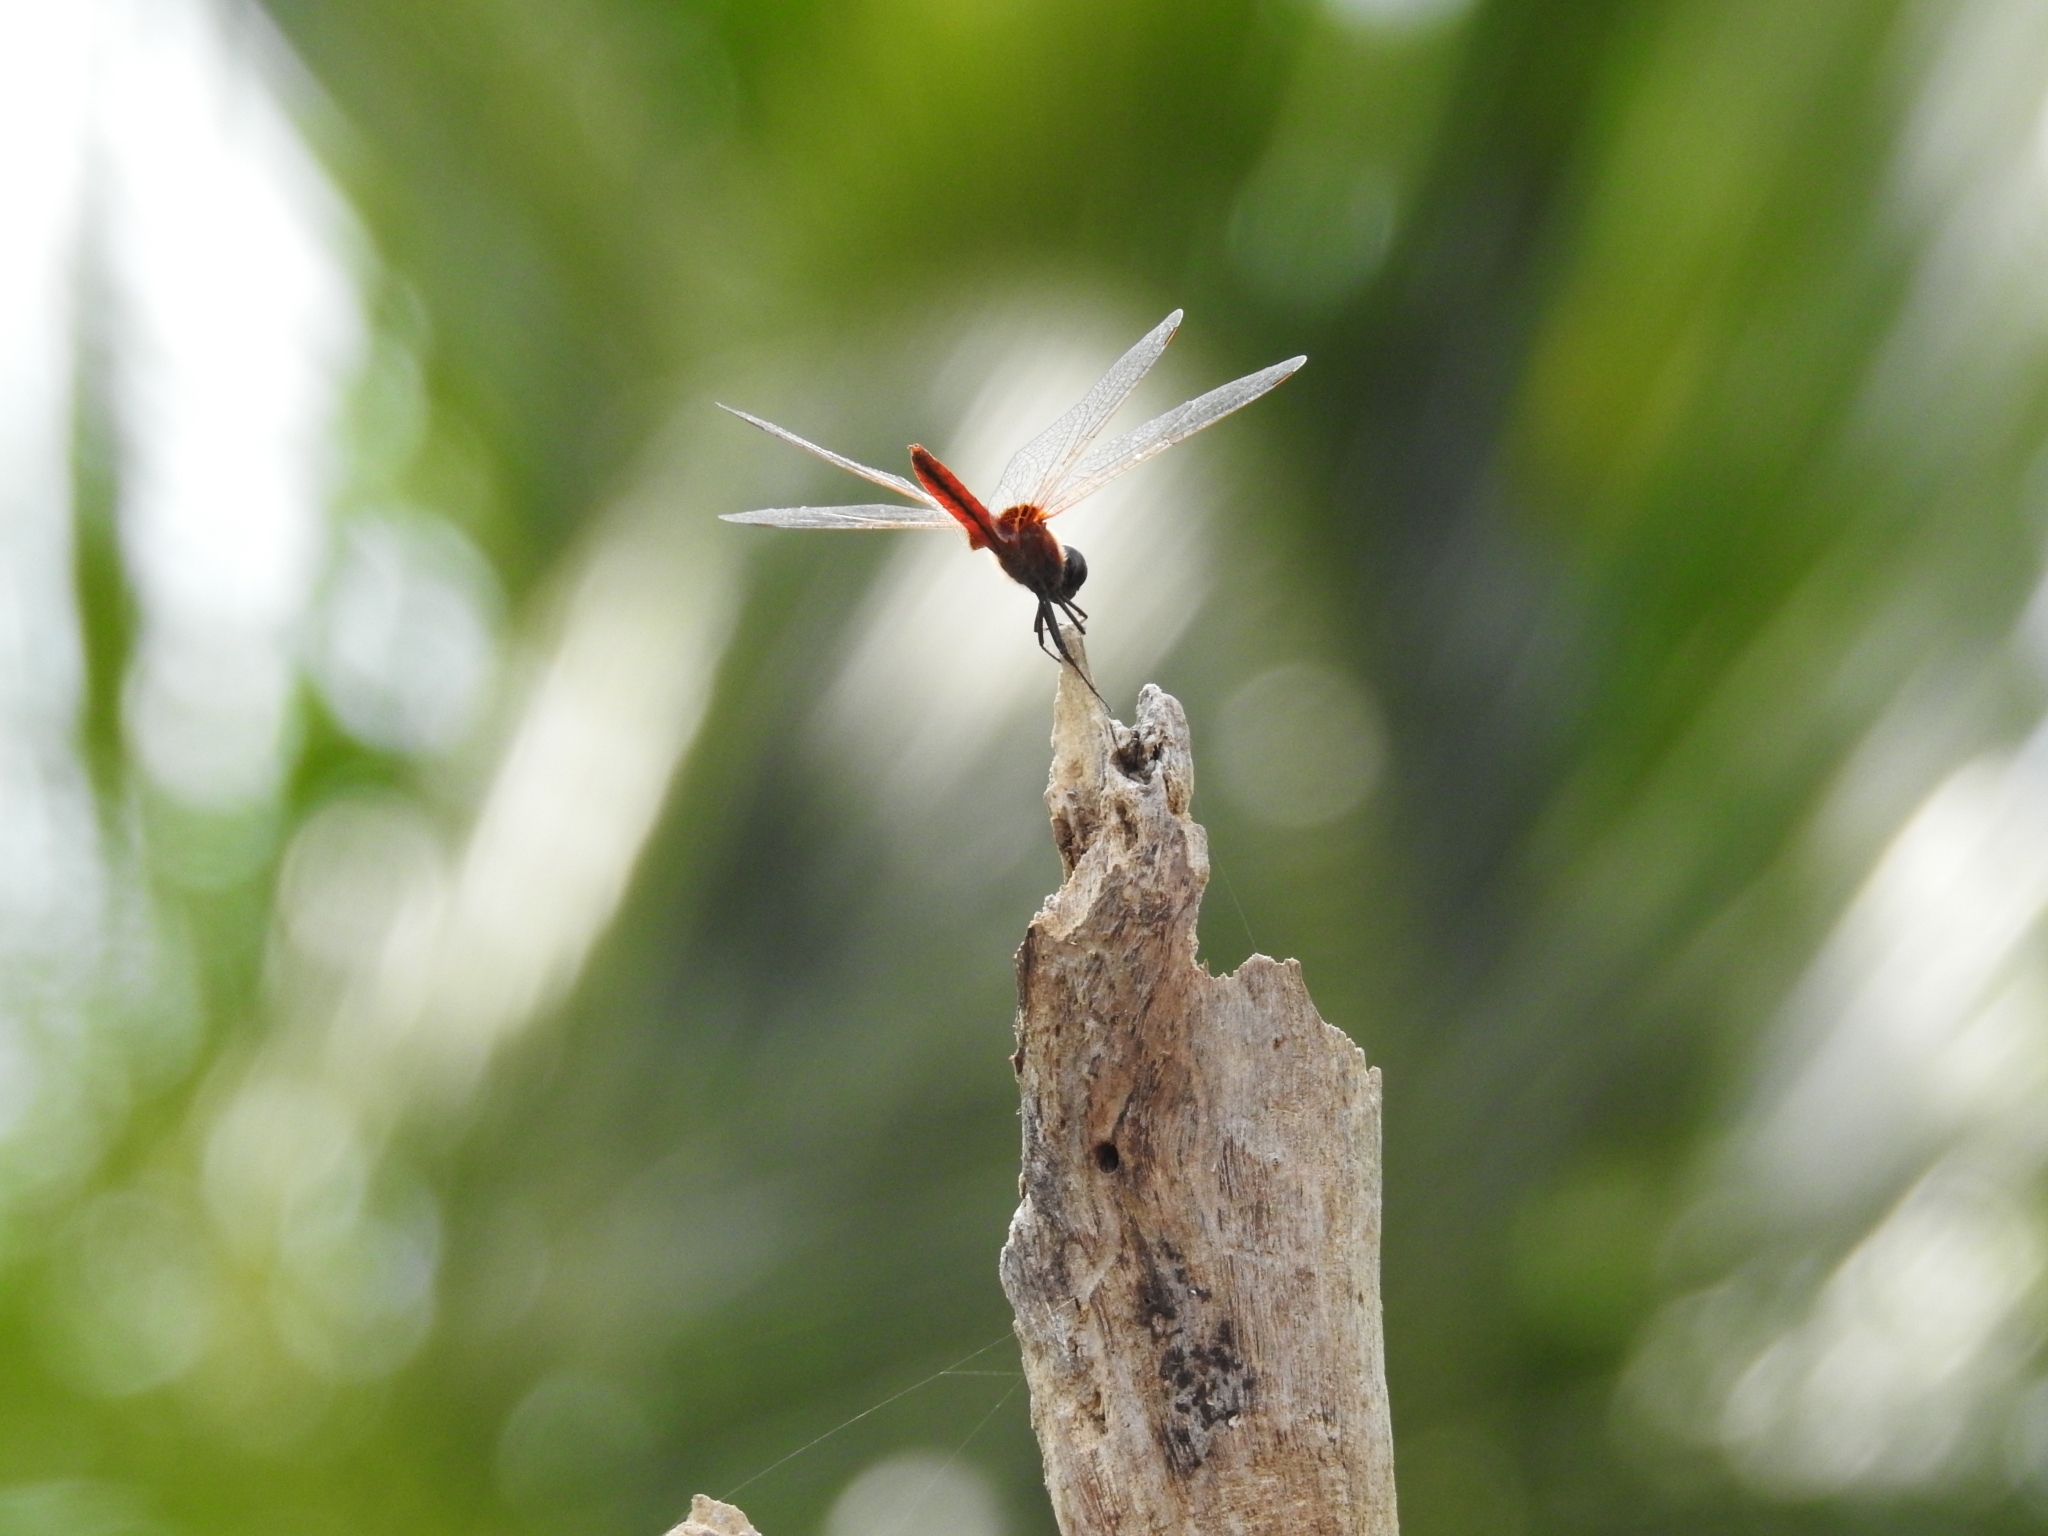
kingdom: Animalia
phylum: Arthropoda
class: Insecta
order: Odonata
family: Libellulidae
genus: Urothemis
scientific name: Urothemis signata
